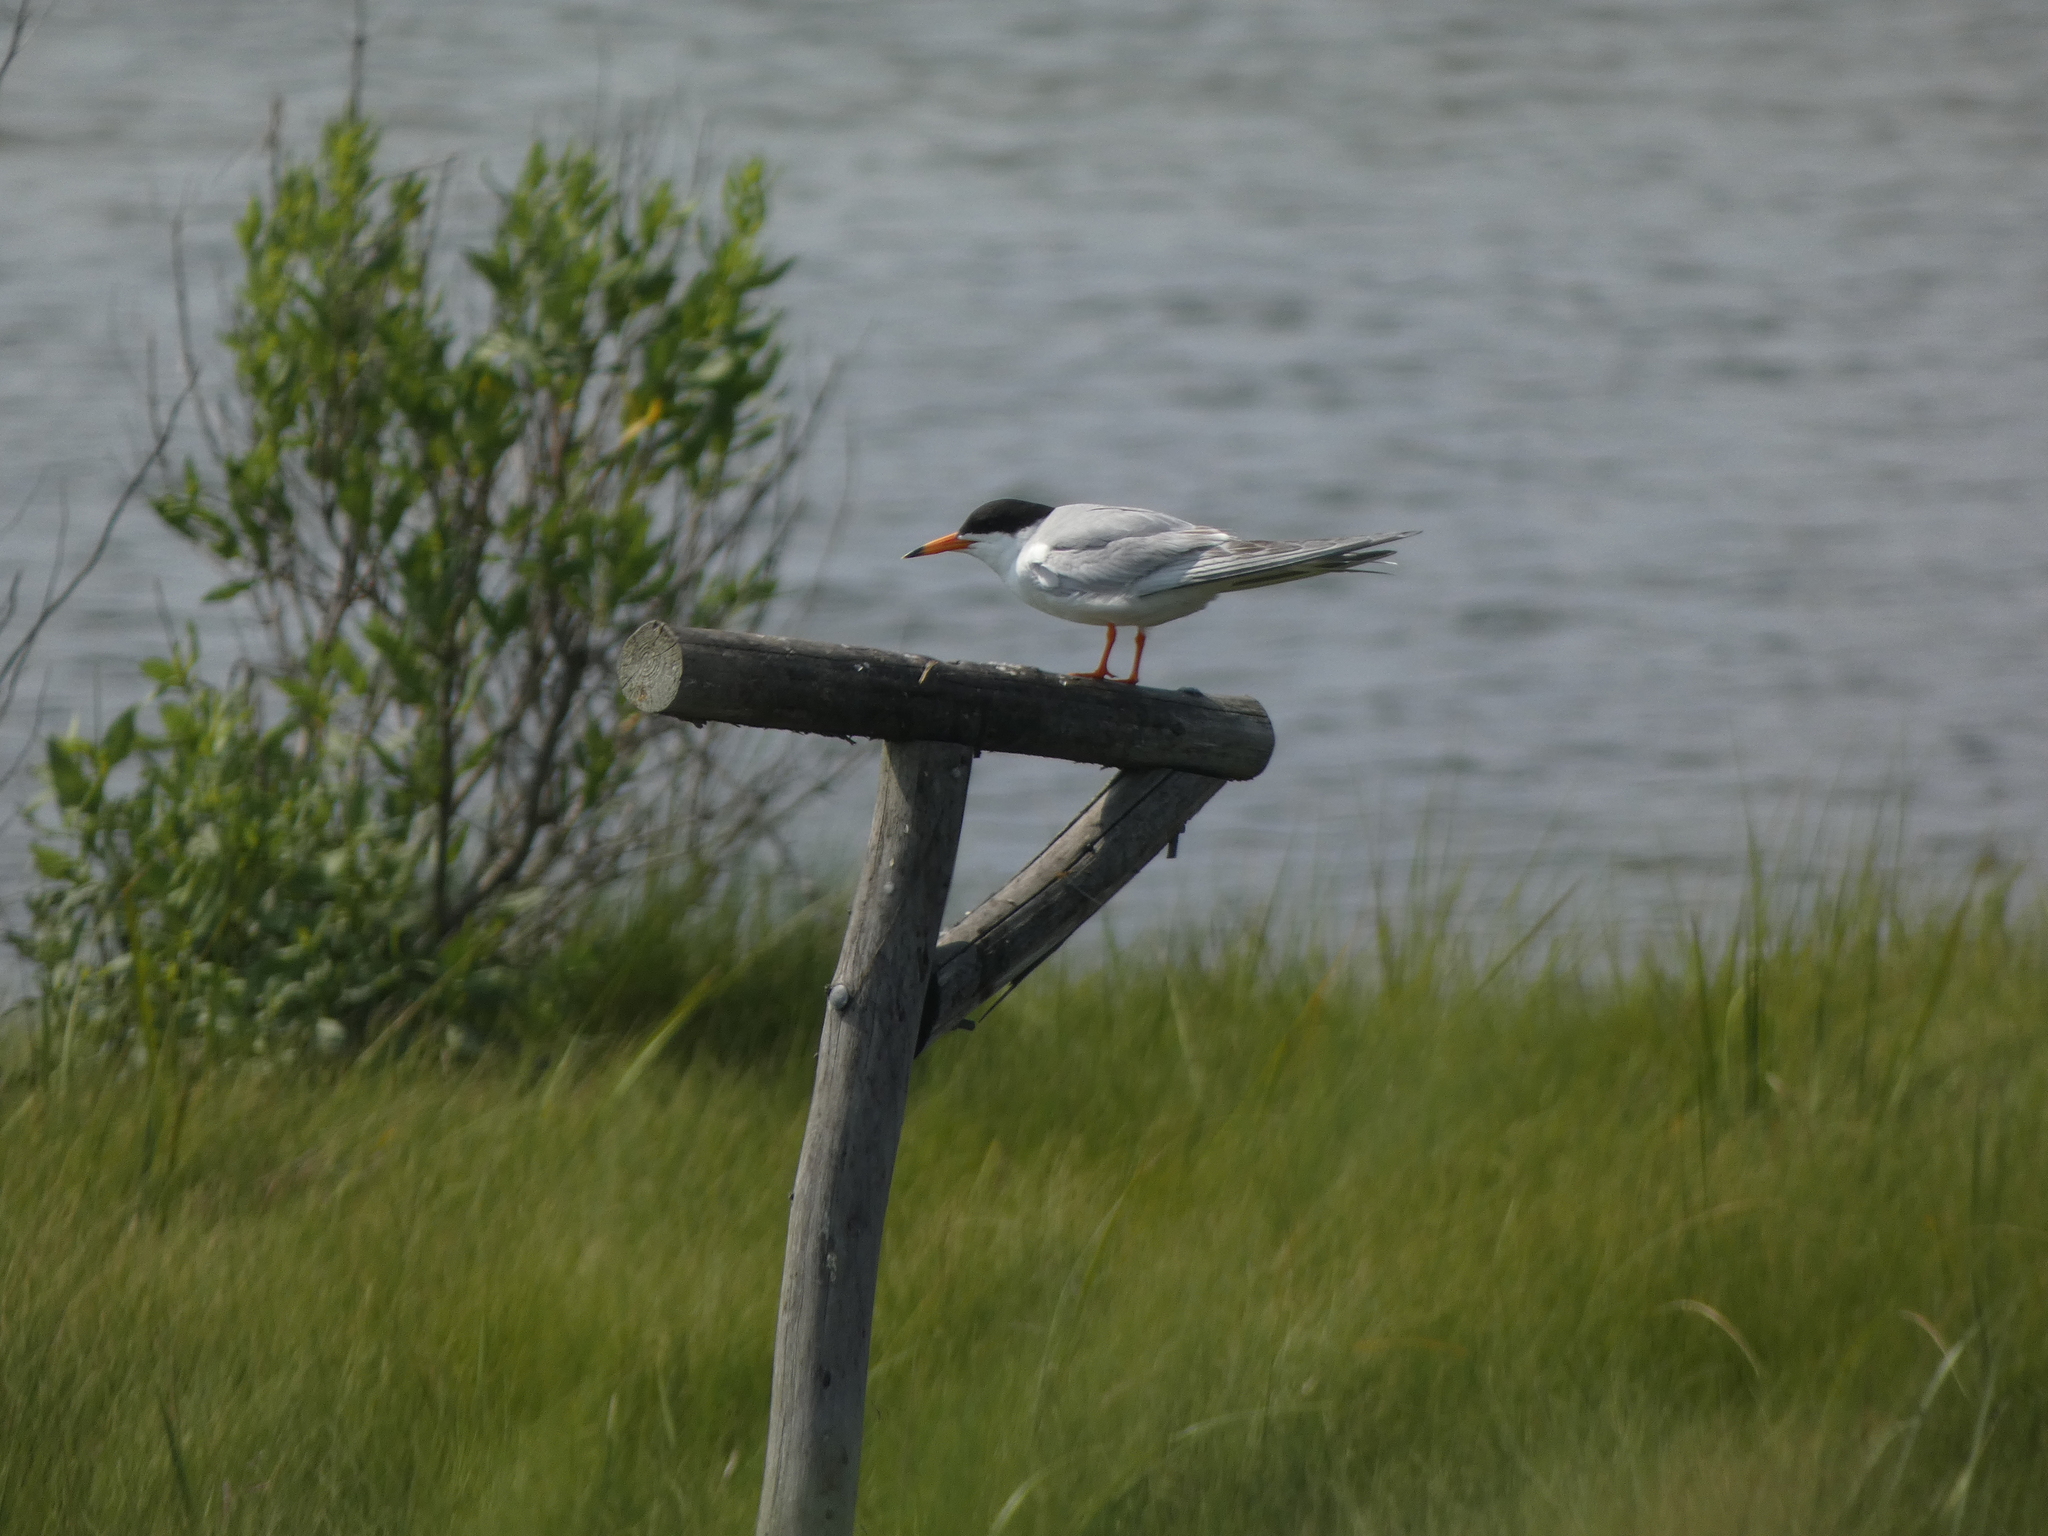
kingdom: Animalia
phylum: Chordata
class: Aves
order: Charadriiformes
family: Laridae
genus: Sterna
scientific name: Sterna forsteri
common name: Forster's tern
